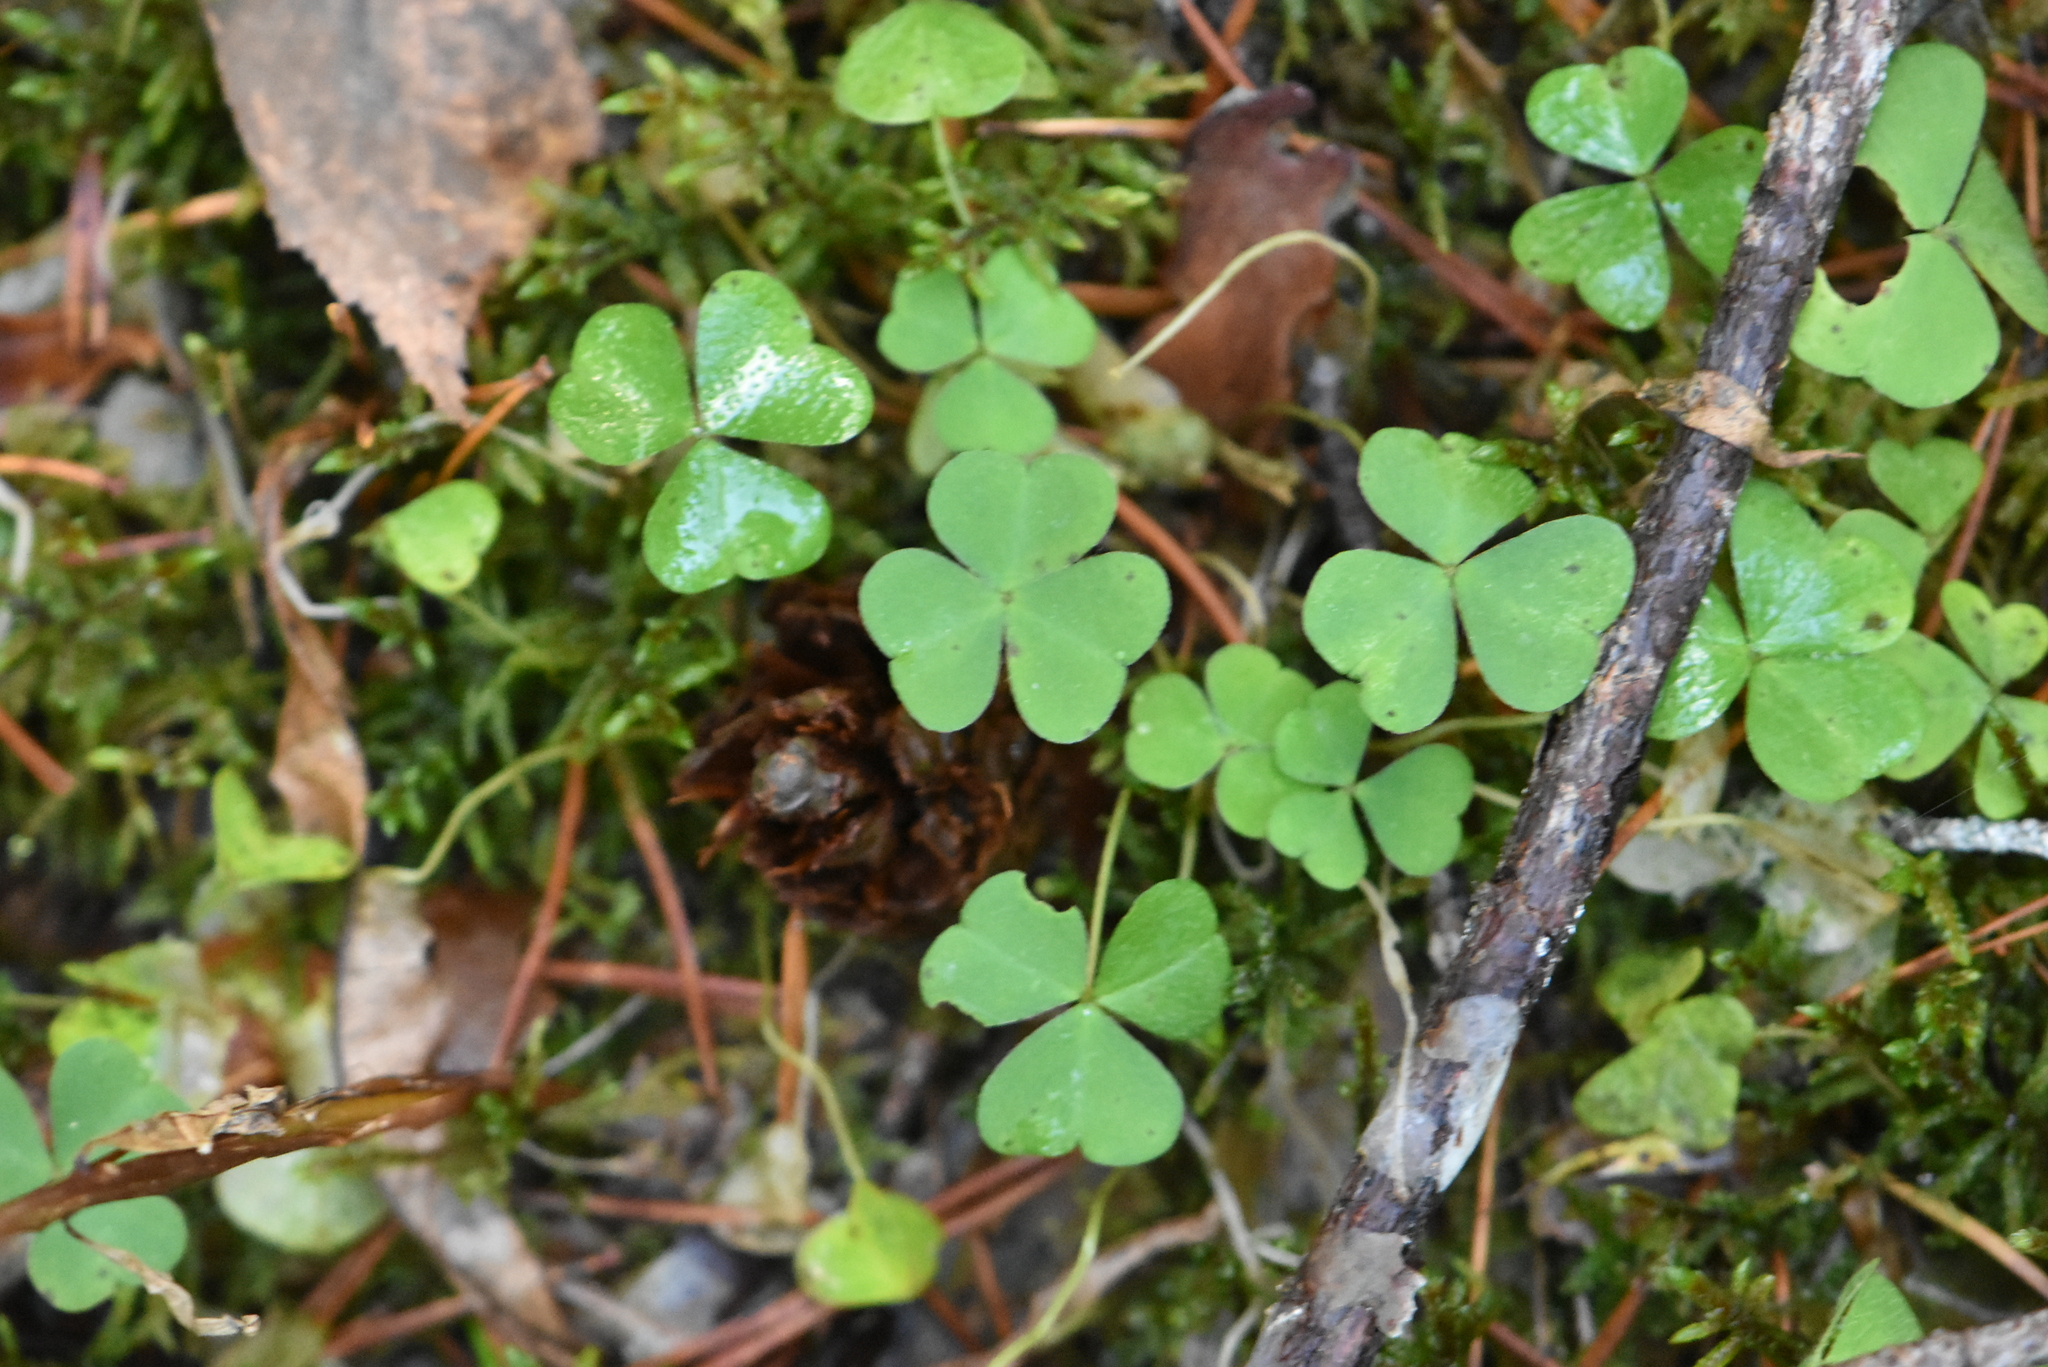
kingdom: Plantae
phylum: Tracheophyta
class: Magnoliopsida
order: Oxalidales
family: Oxalidaceae
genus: Oxalis
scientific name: Oxalis acetosella
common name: Wood-sorrel
